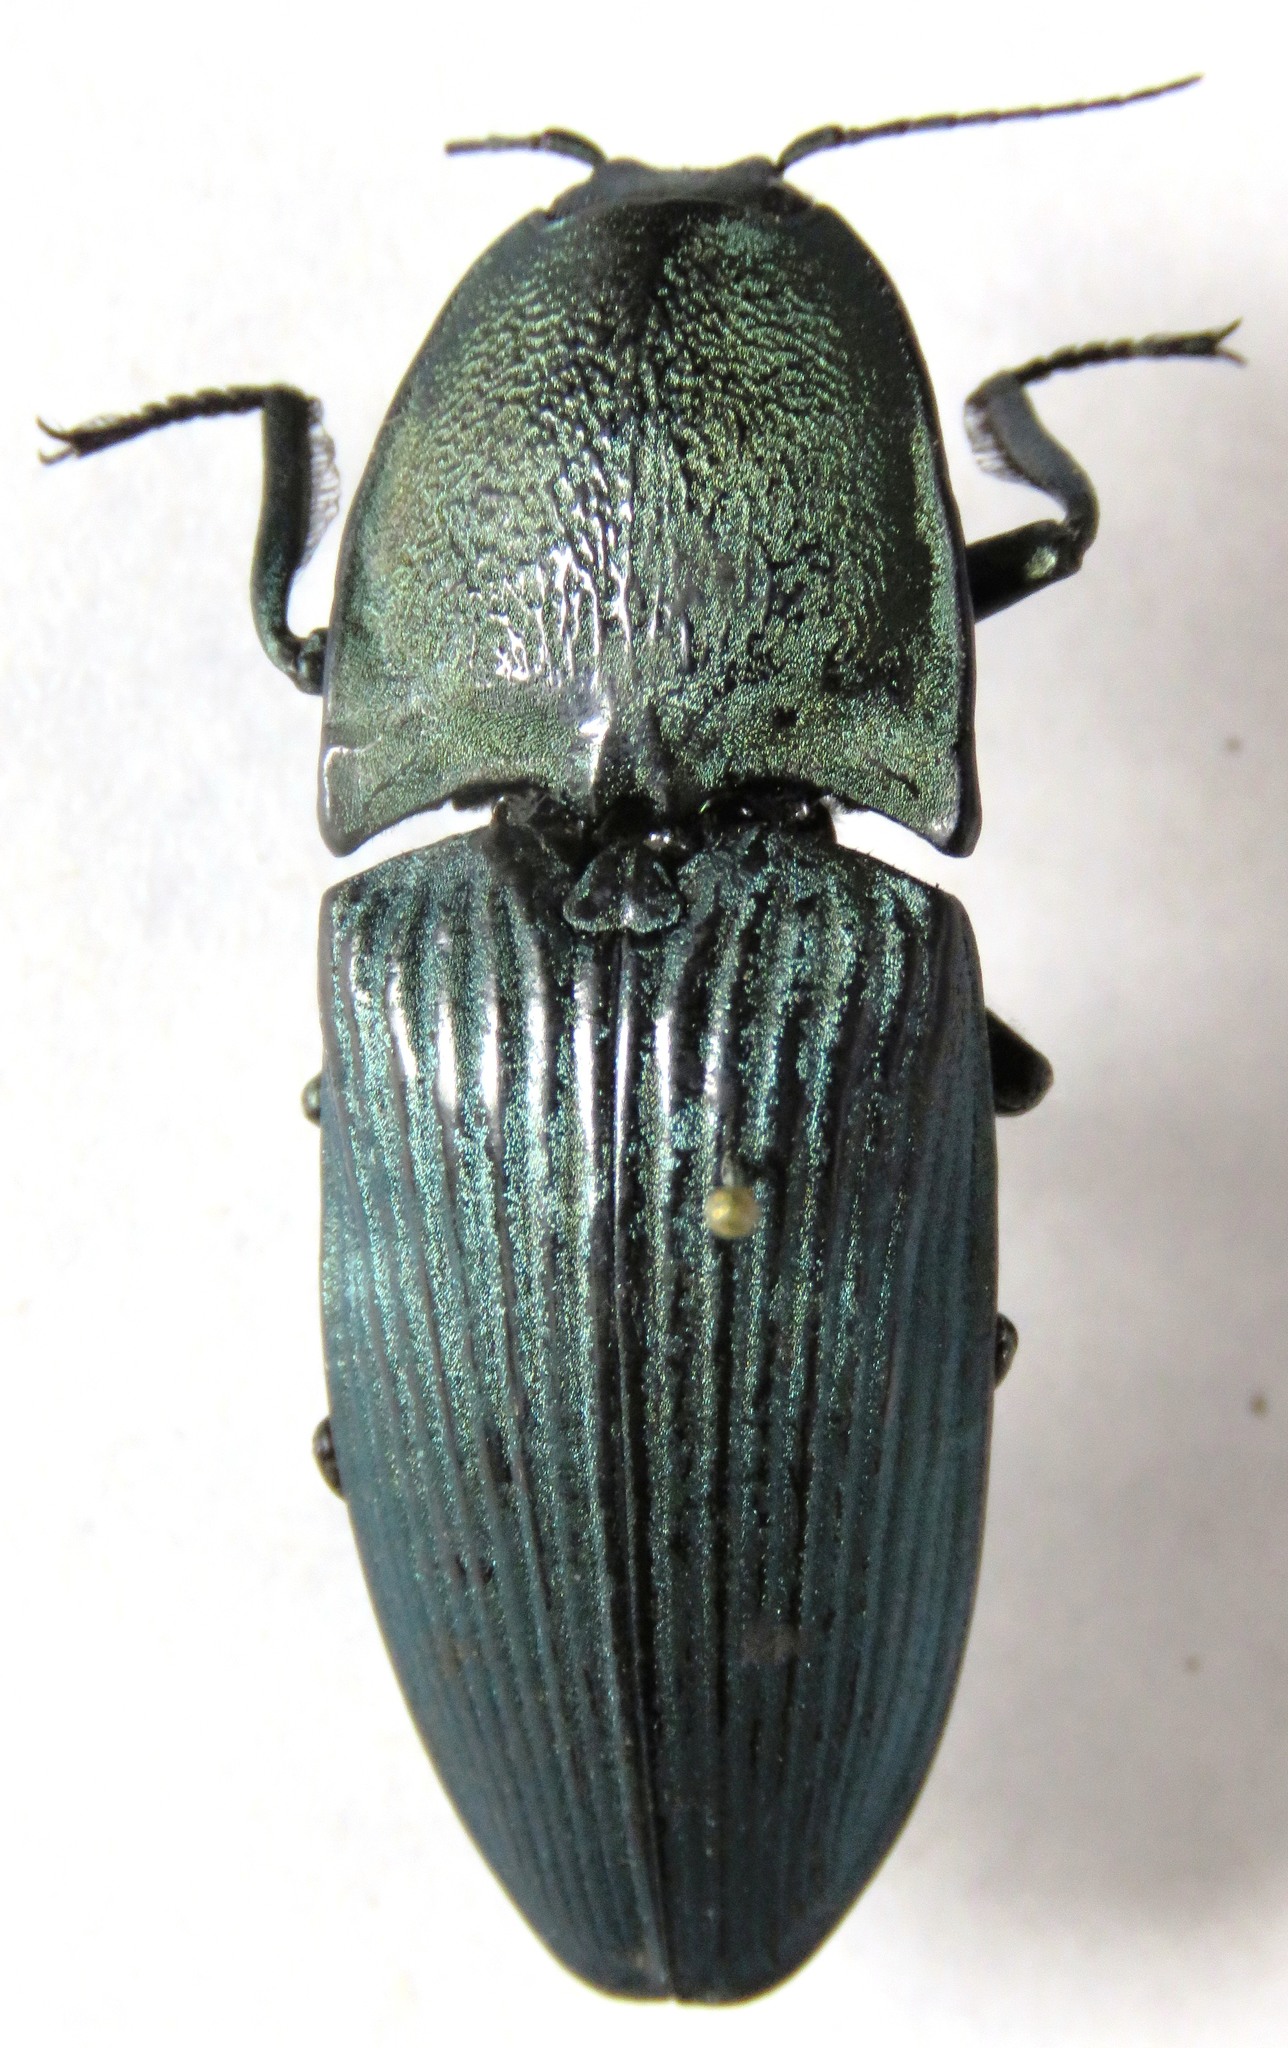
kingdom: Animalia
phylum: Arthropoda
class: Insecta
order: Coleoptera
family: Elateridae
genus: Chalcolepidius
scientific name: Chalcolepidius lacordairei
